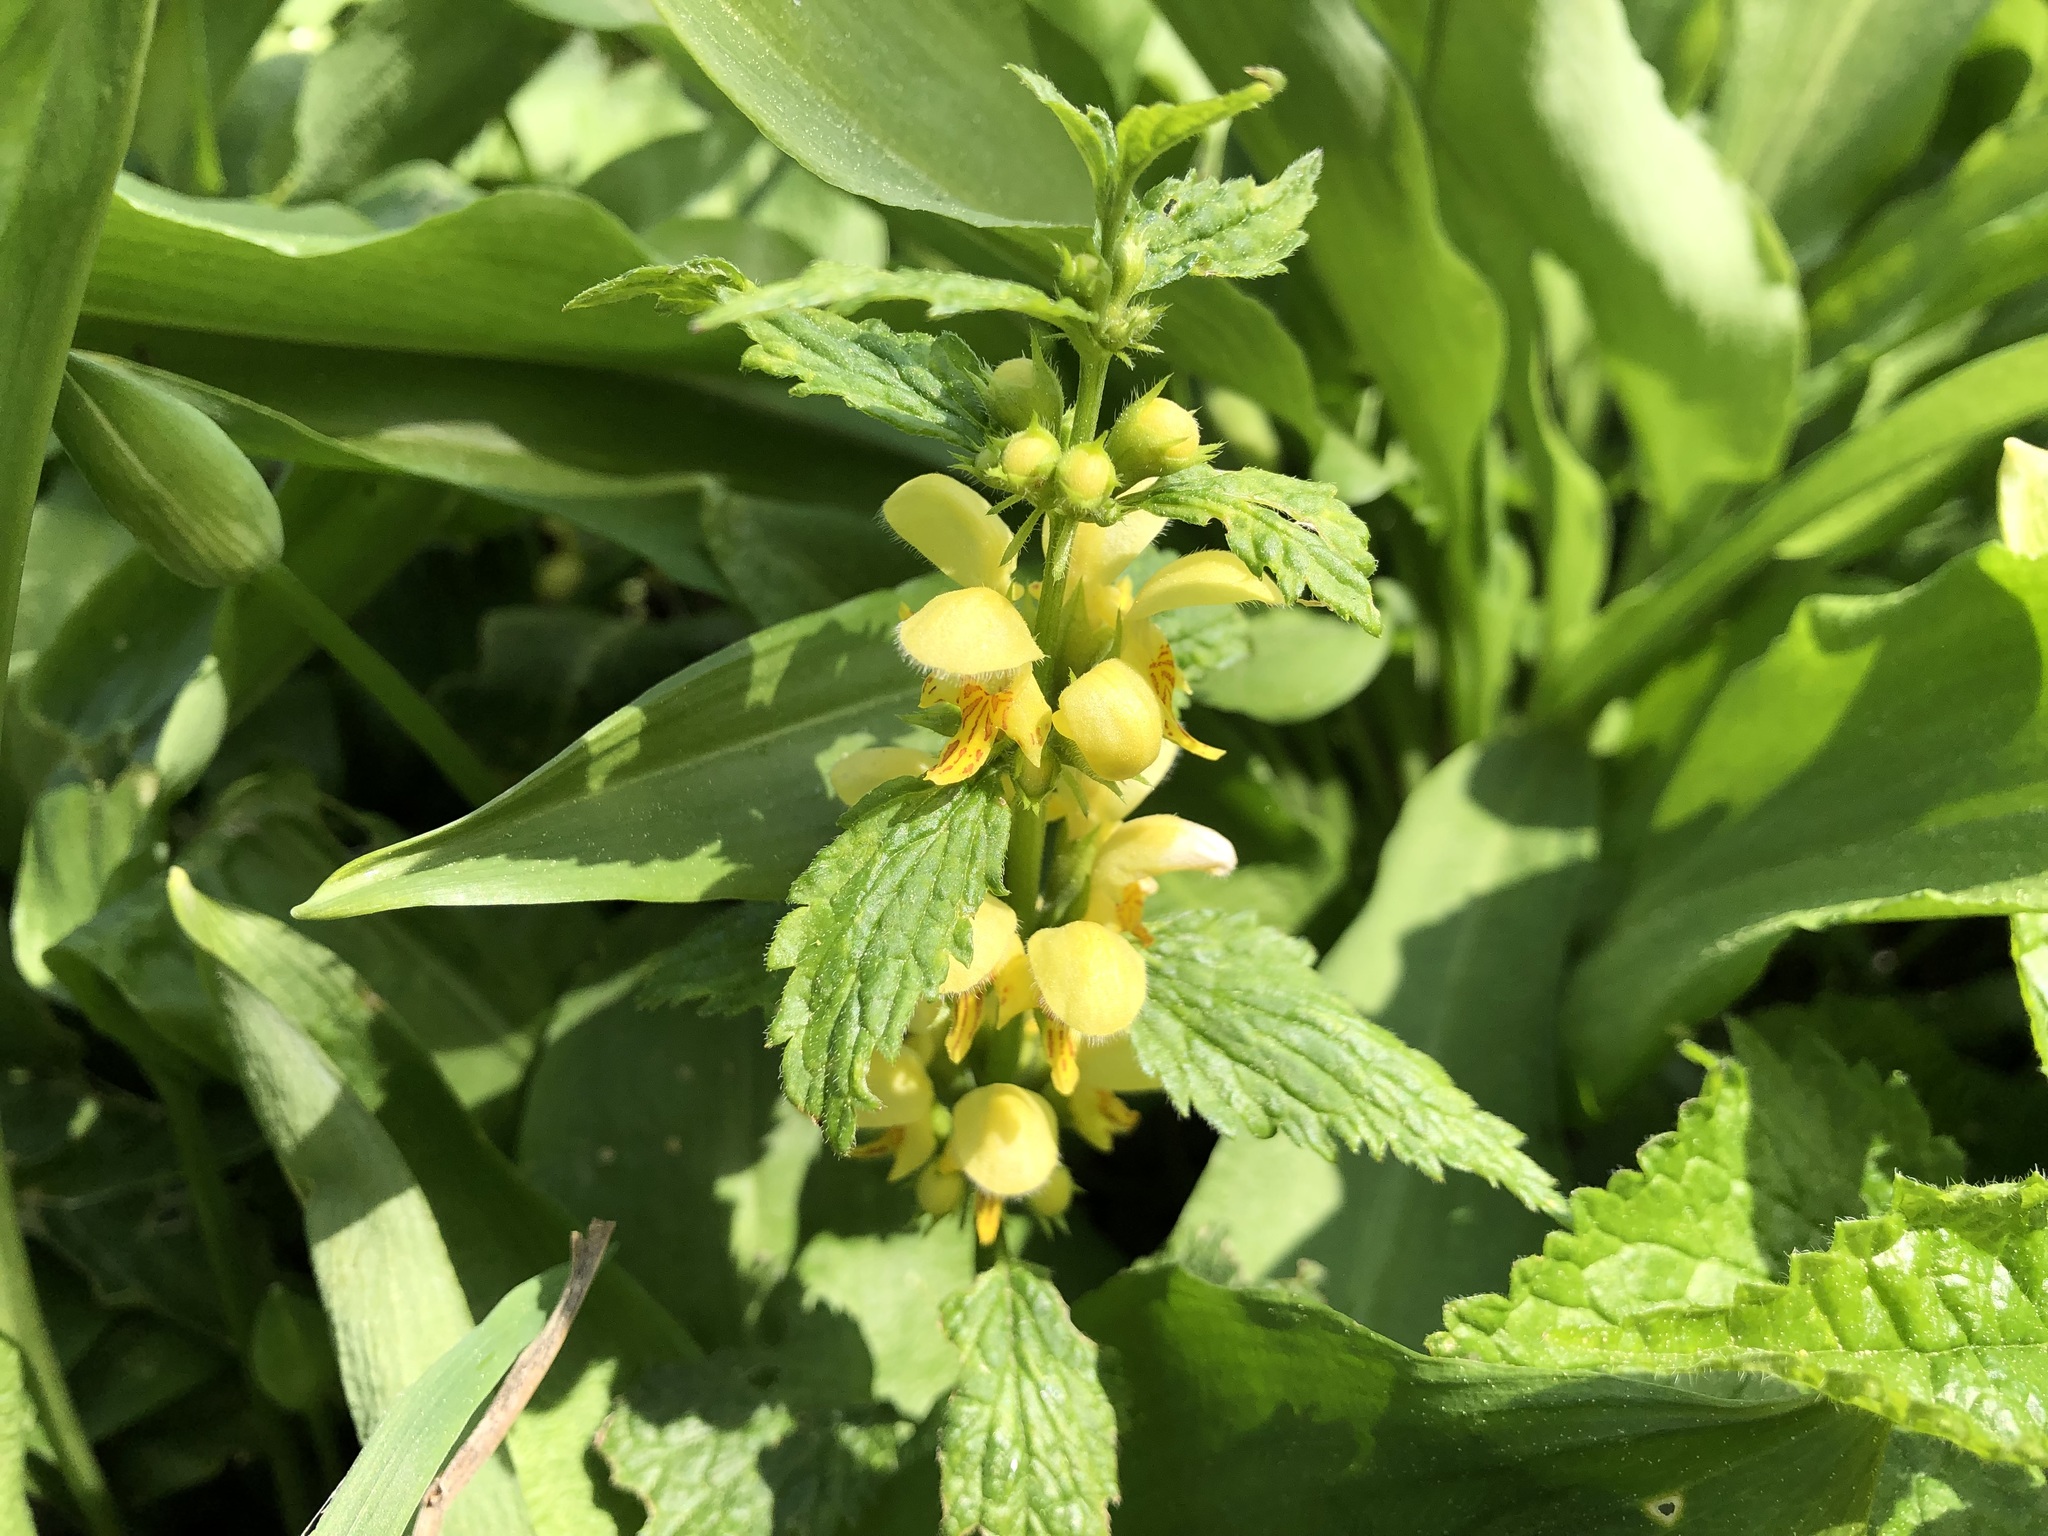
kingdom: Plantae
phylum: Tracheophyta
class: Magnoliopsida
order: Lamiales
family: Lamiaceae
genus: Lamium
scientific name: Lamium galeobdolon
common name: Yellow archangel
